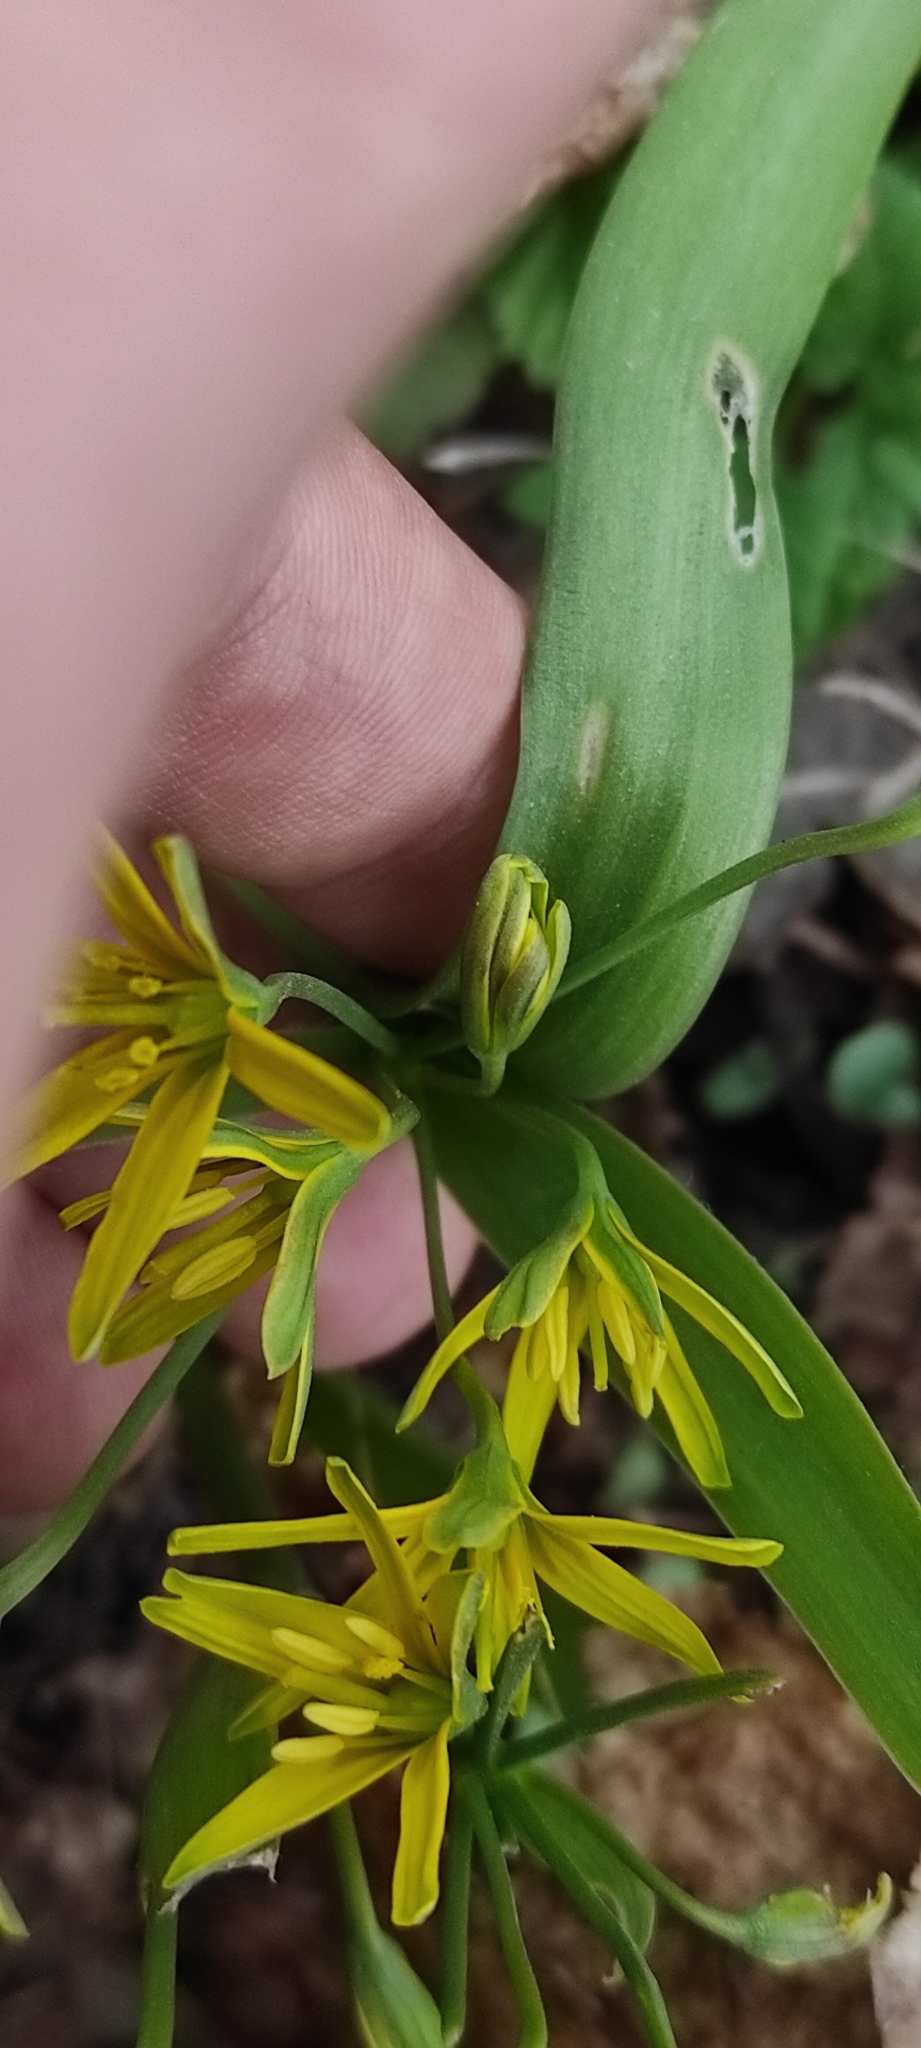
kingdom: Plantae
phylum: Tracheophyta
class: Liliopsida
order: Liliales
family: Liliaceae
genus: Gagea
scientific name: Gagea lutea
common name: Yellow star-of-bethlehem
